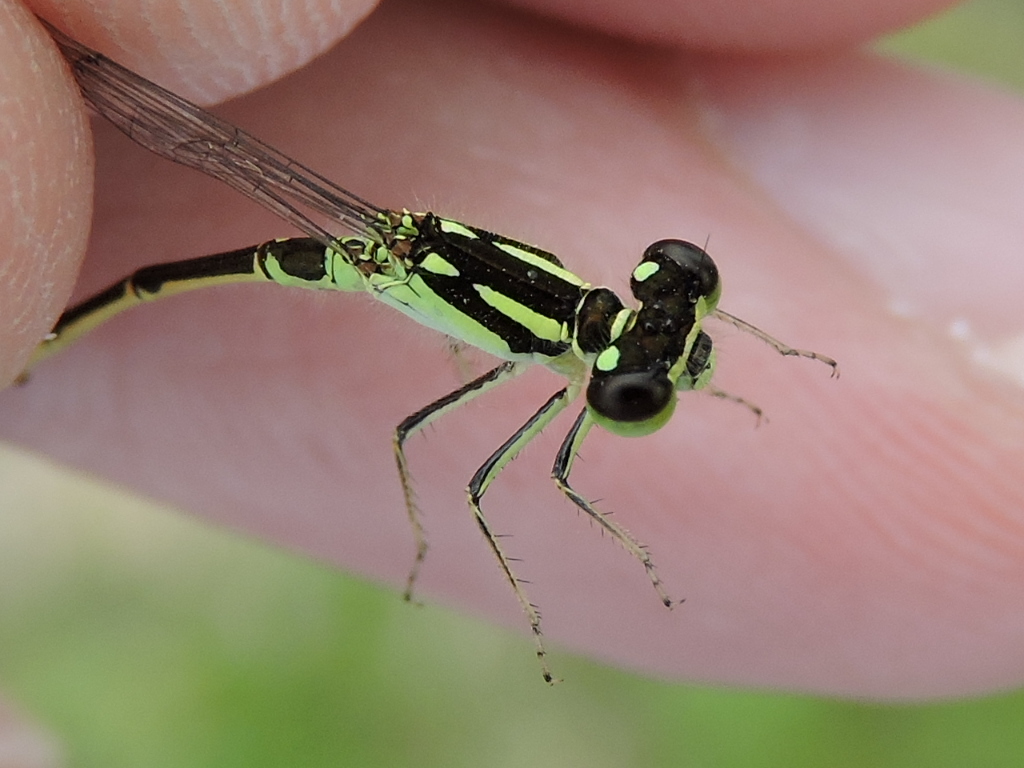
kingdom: Animalia
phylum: Arthropoda
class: Insecta
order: Odonata
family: Coenagrionidae
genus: Ischnura
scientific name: Ischnura posita
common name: Fragile forktail
